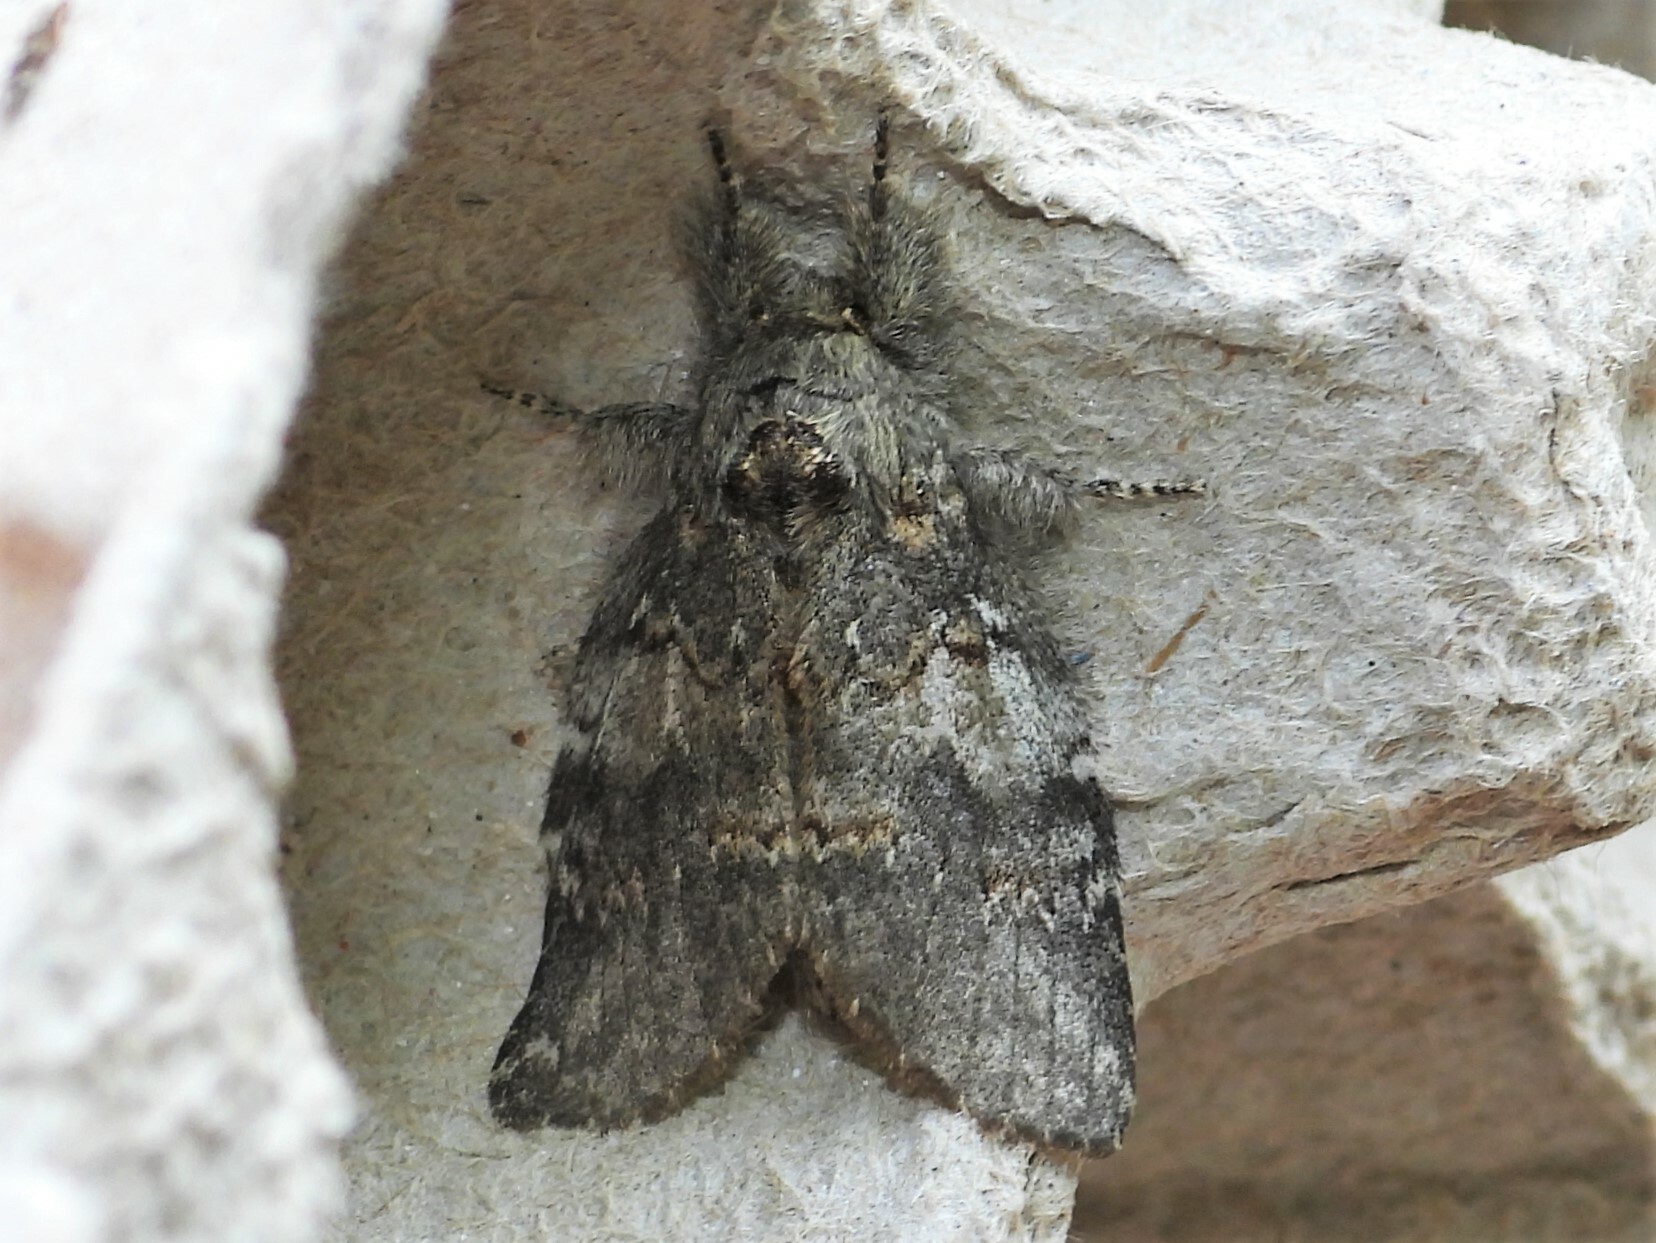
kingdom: Animalia
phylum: Arthropoda
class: Insecta
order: Lepidoptera
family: Notodontidae
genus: Peridea
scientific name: Peridea angulosa
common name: Angulose prominent
